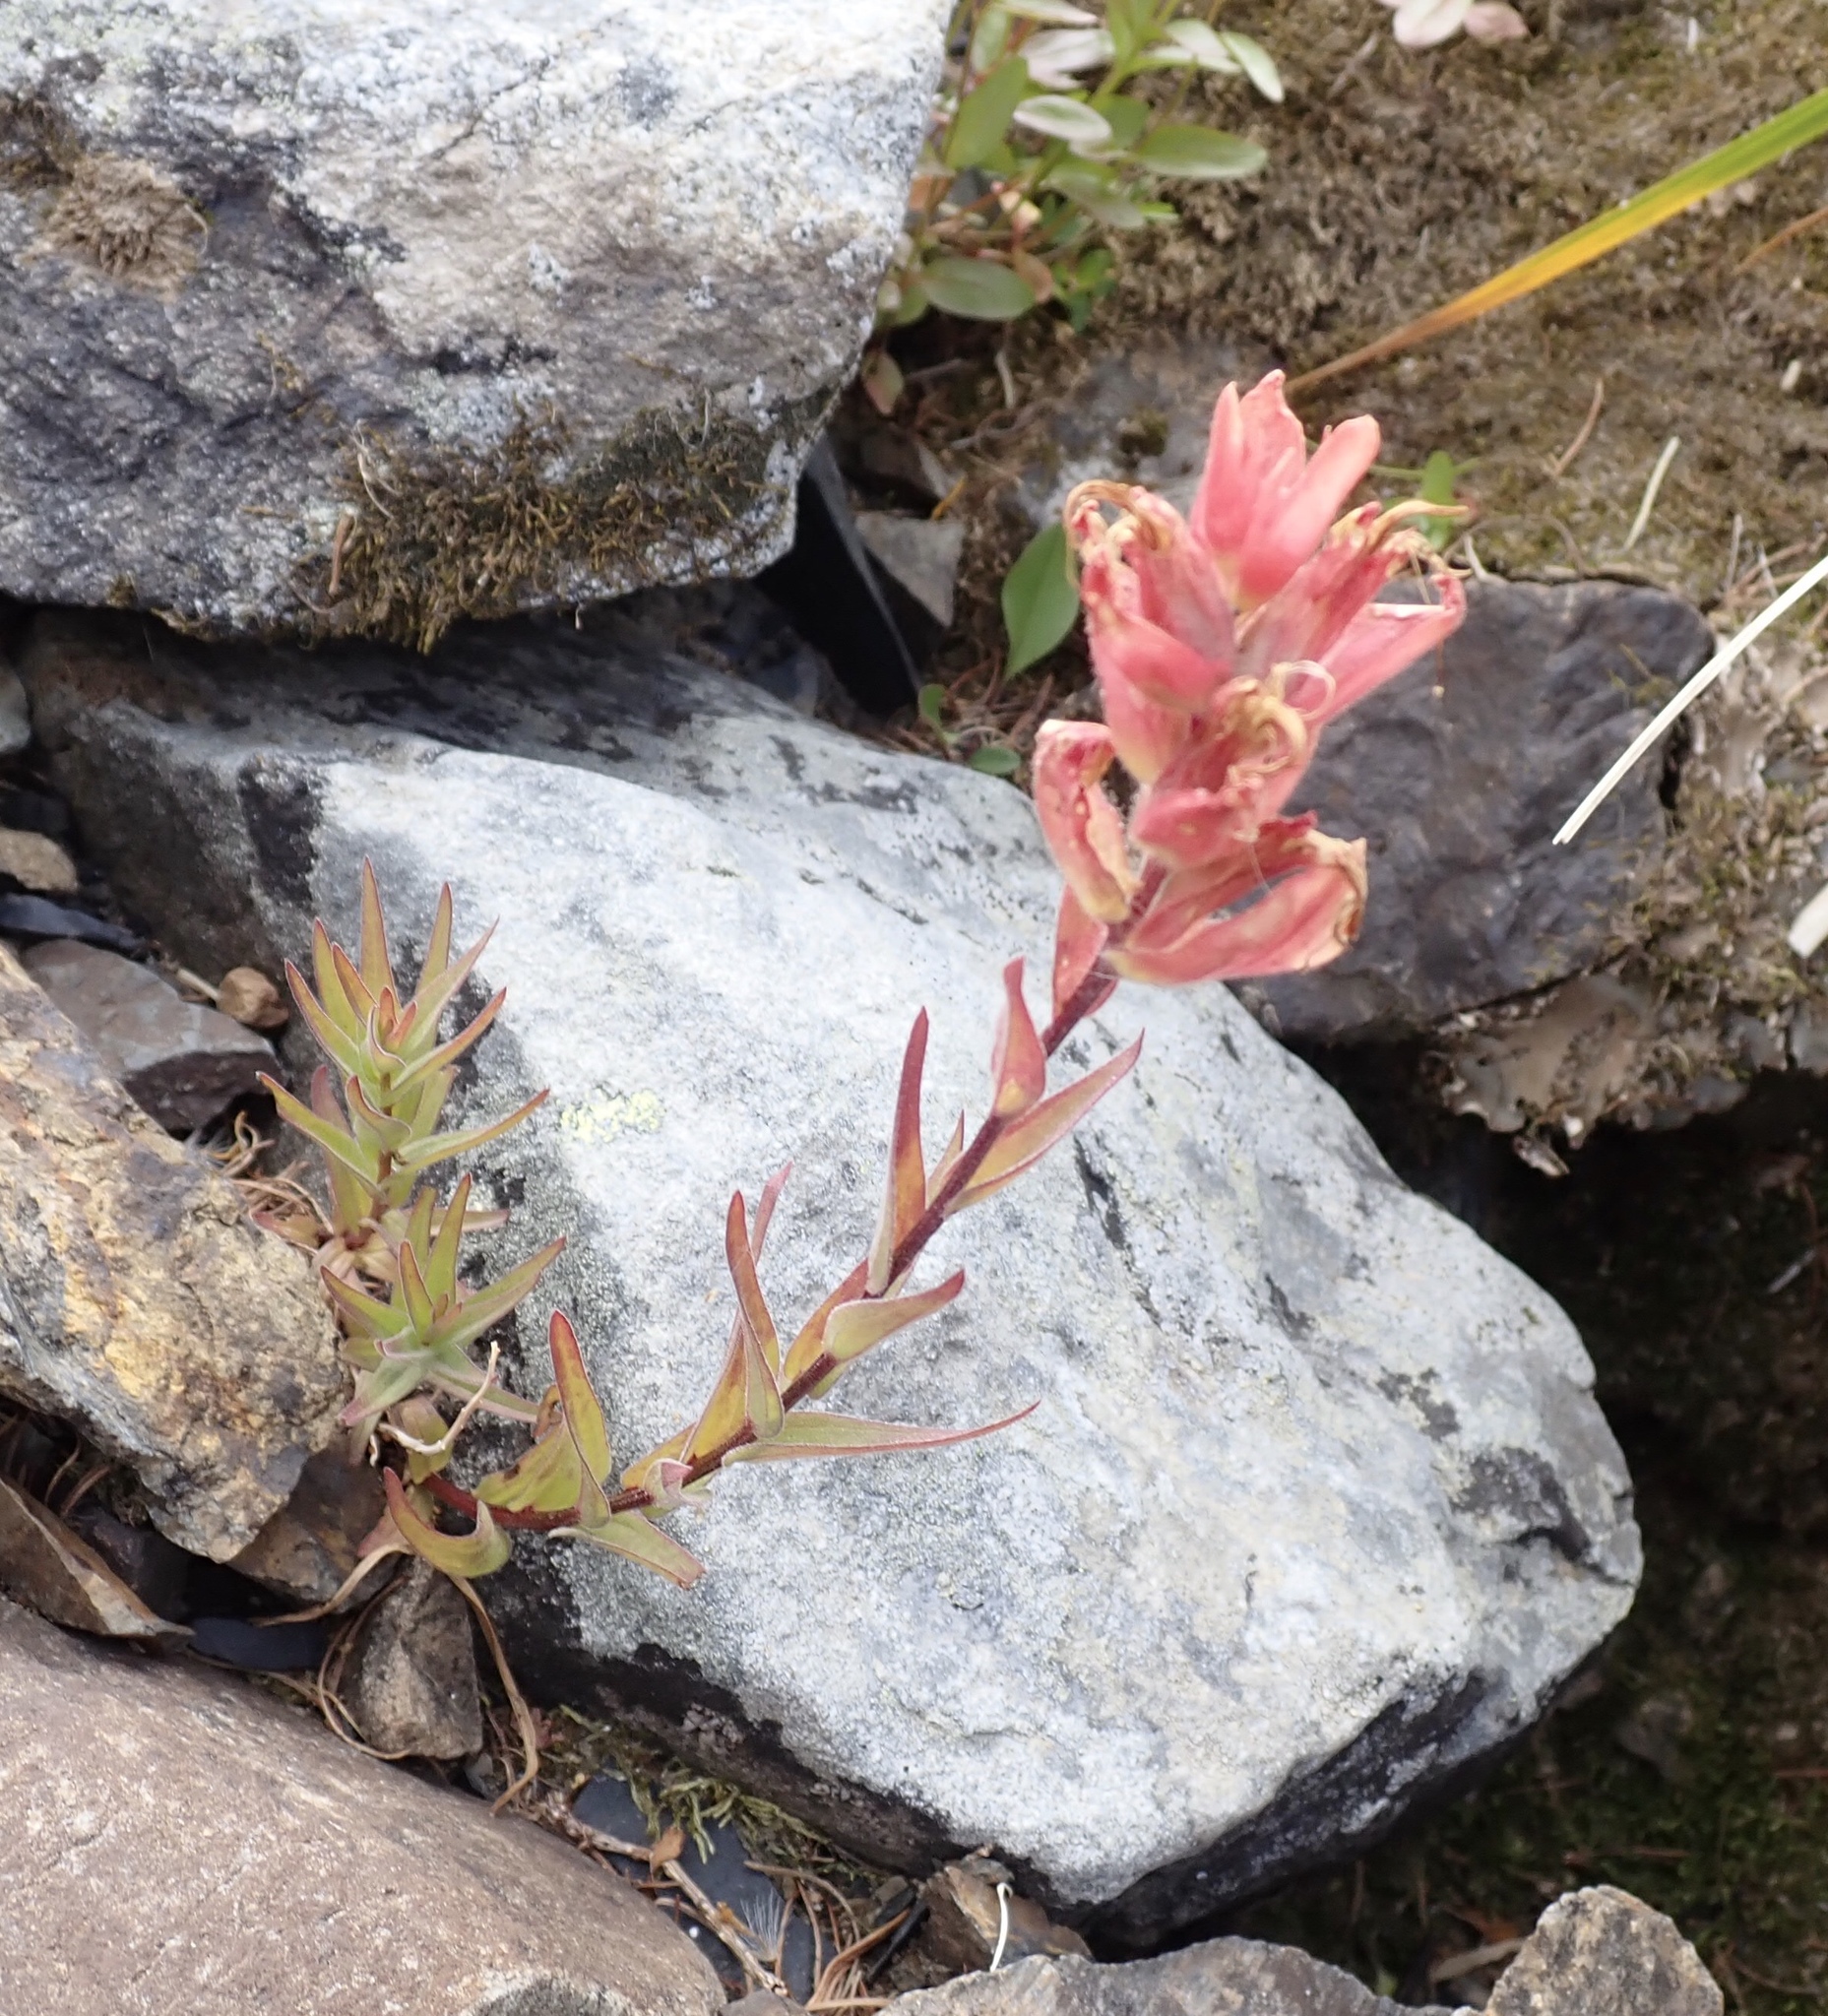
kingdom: Plantae
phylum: Tracheophyta
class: Magnoliopsida
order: Lamiales
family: Orobanchaceae
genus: Castilleja
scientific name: Castilleja miniata
